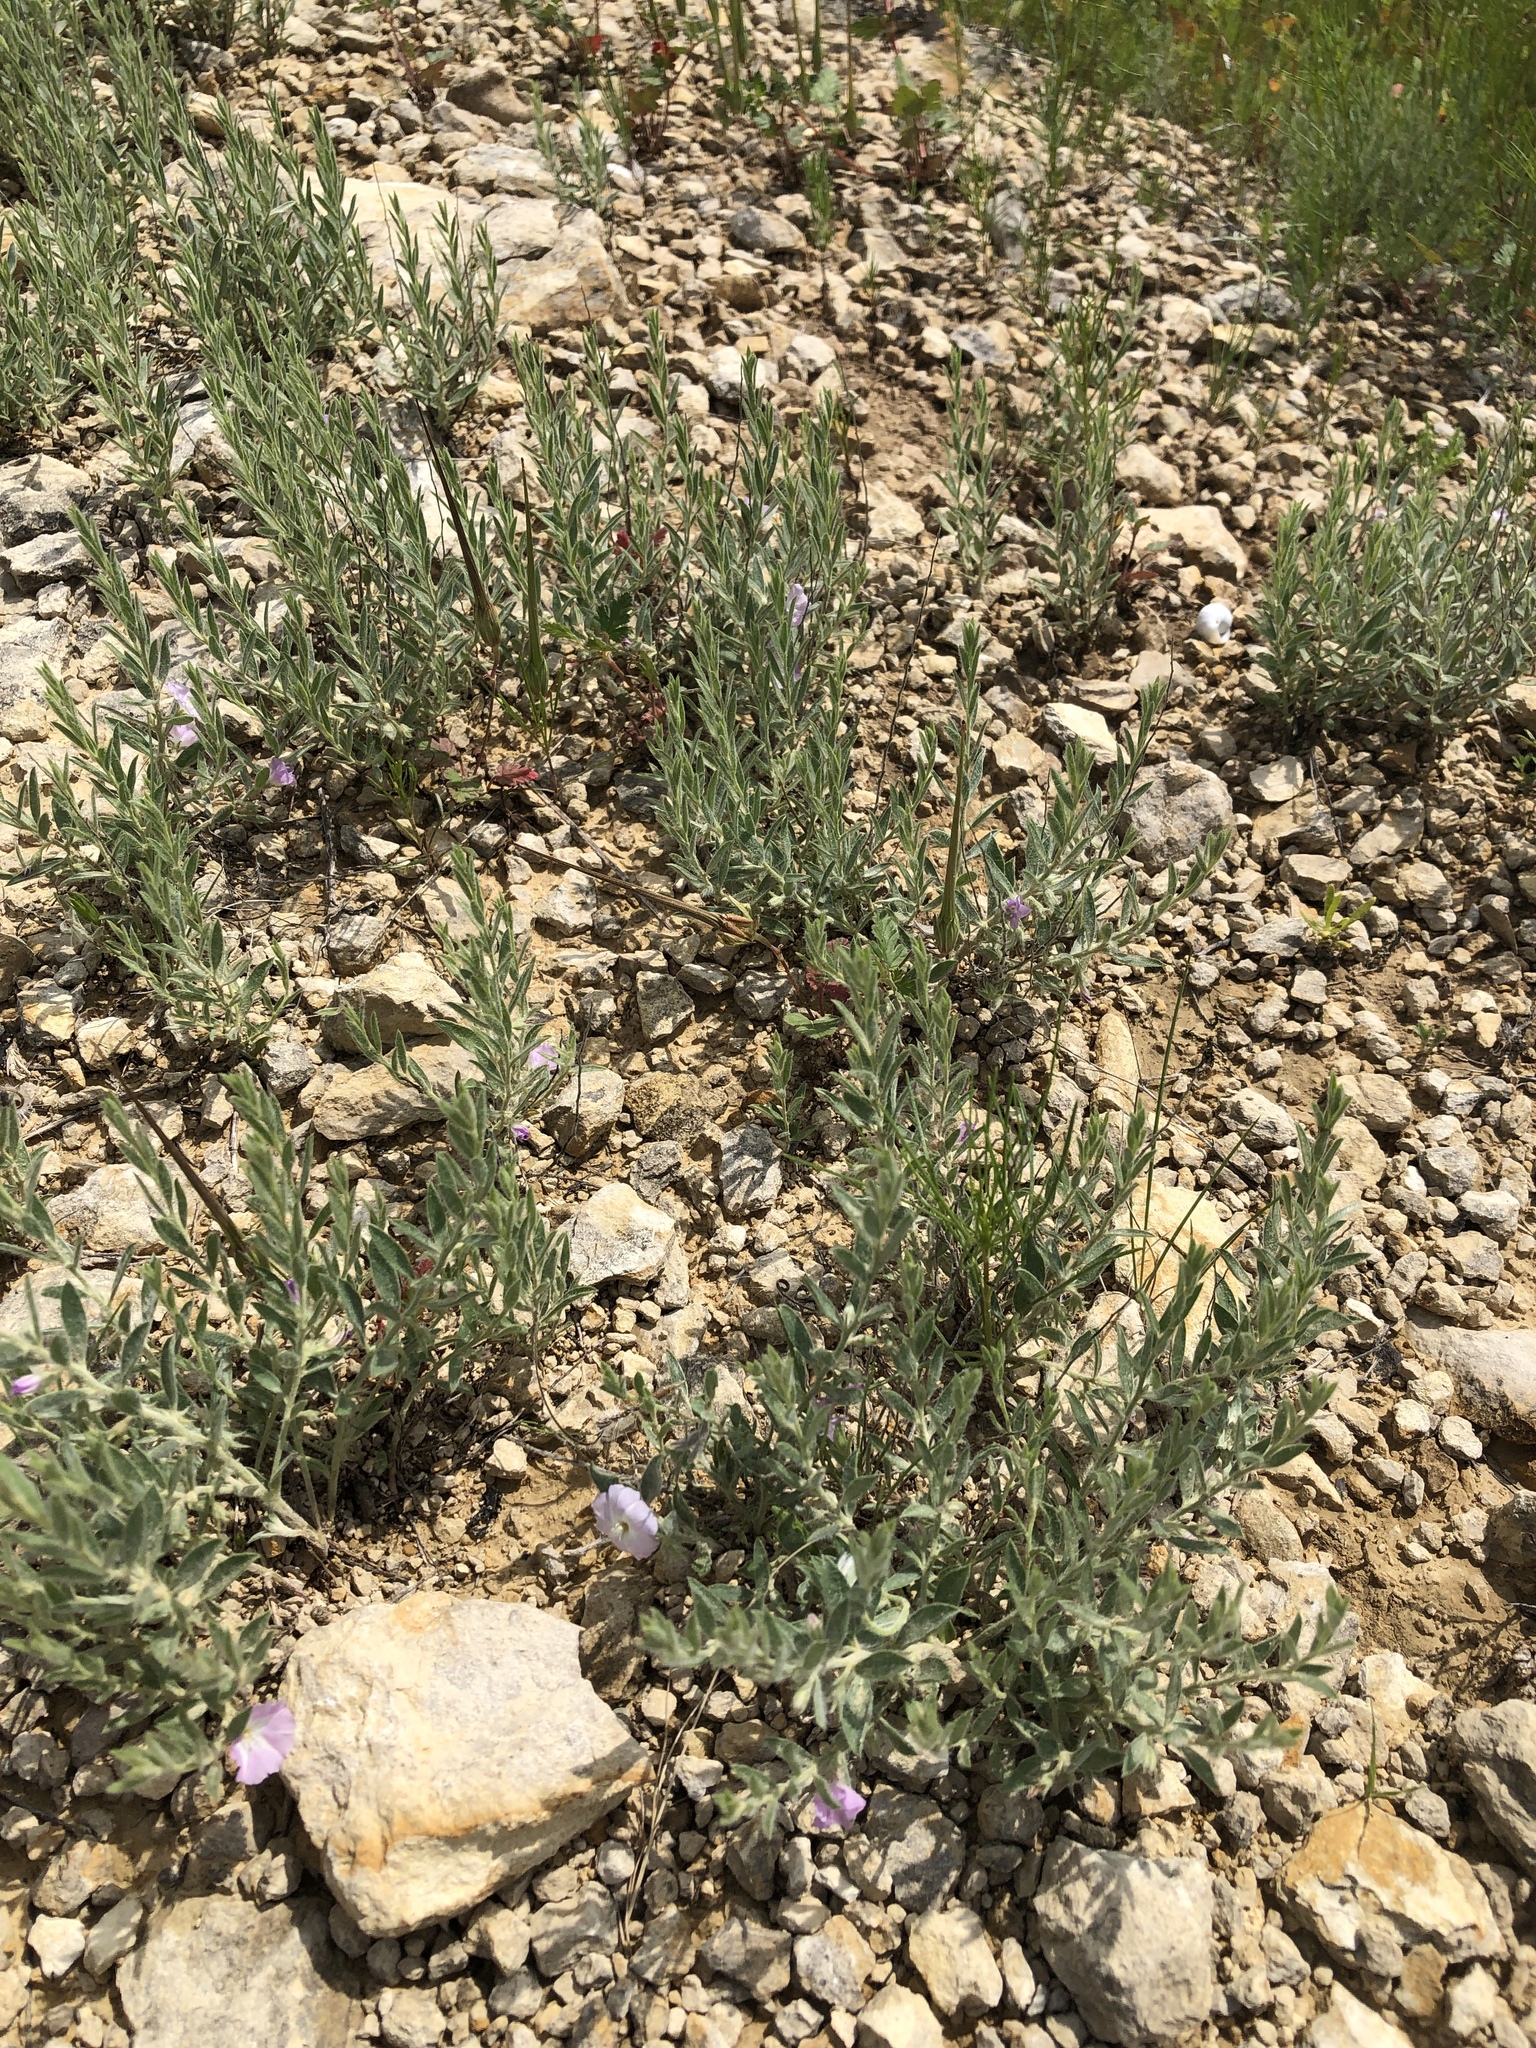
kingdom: Plantae
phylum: Tracheophyta
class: Magnoliopsida
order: Solanales
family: Convolvulaceae
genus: Evolvulus
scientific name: Evolvulus nuttallianus
